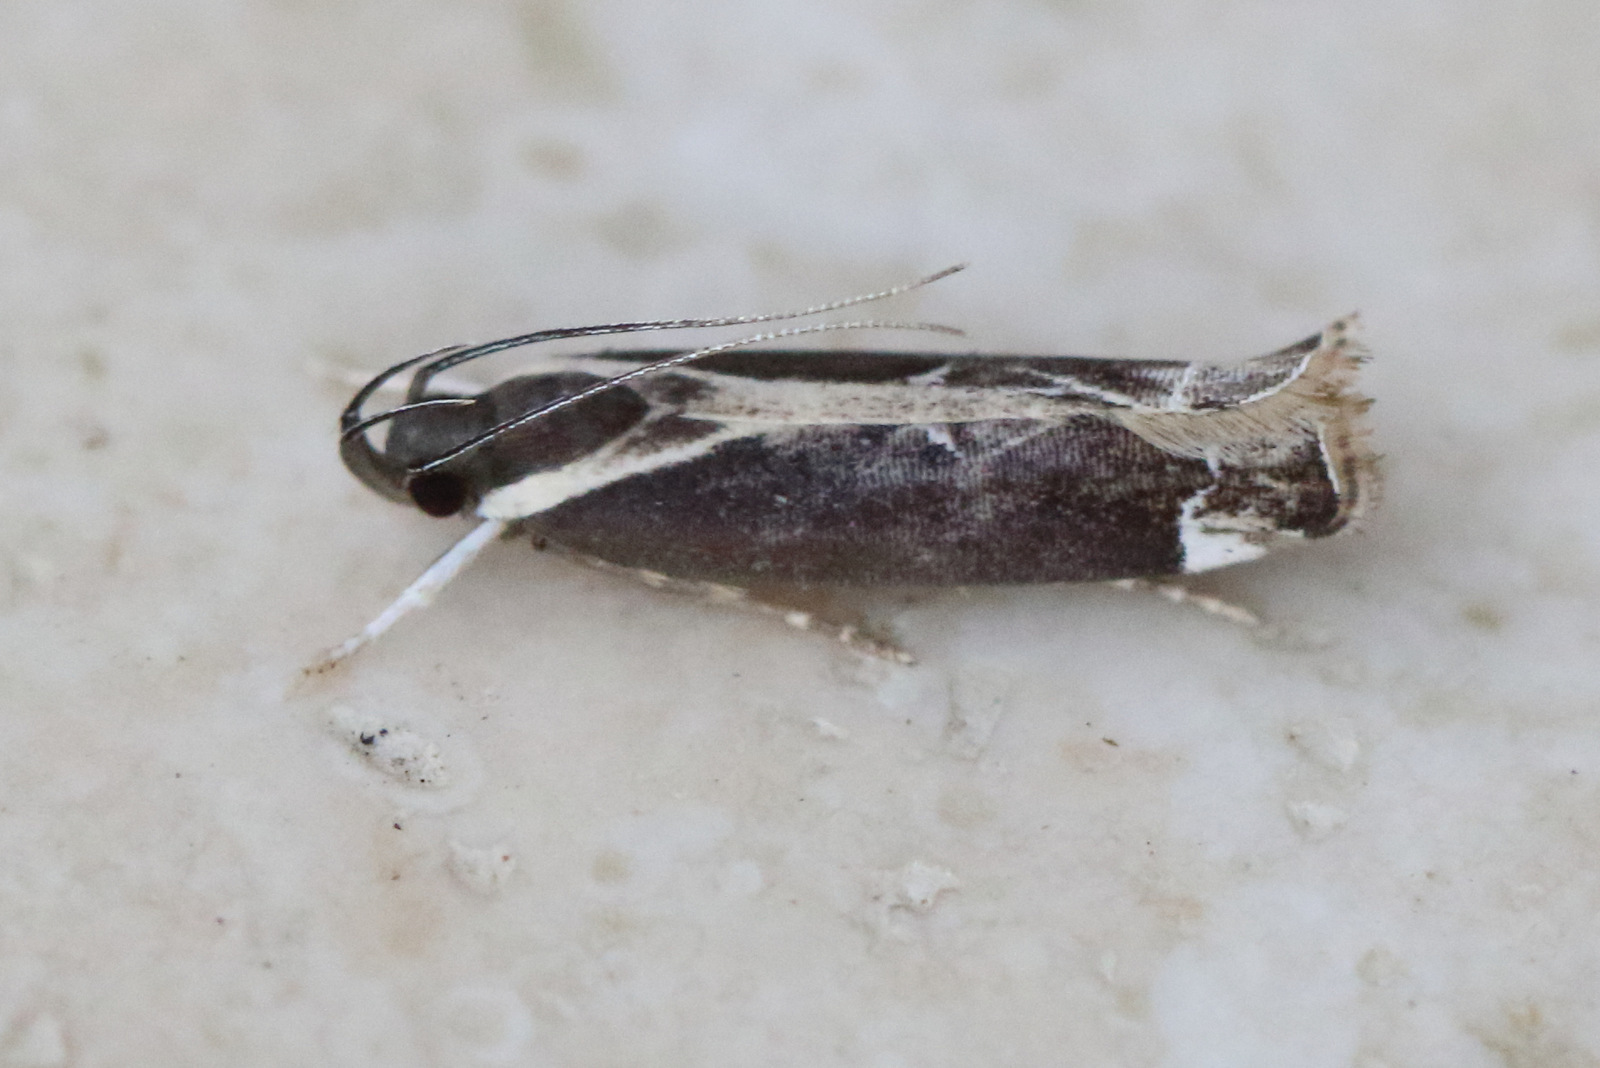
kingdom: Animalia
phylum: Arthropoda
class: Insecta
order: Lepidoptera
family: Gelechiidae
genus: Chaliniastis
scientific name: Chaliniastis astrapaea
